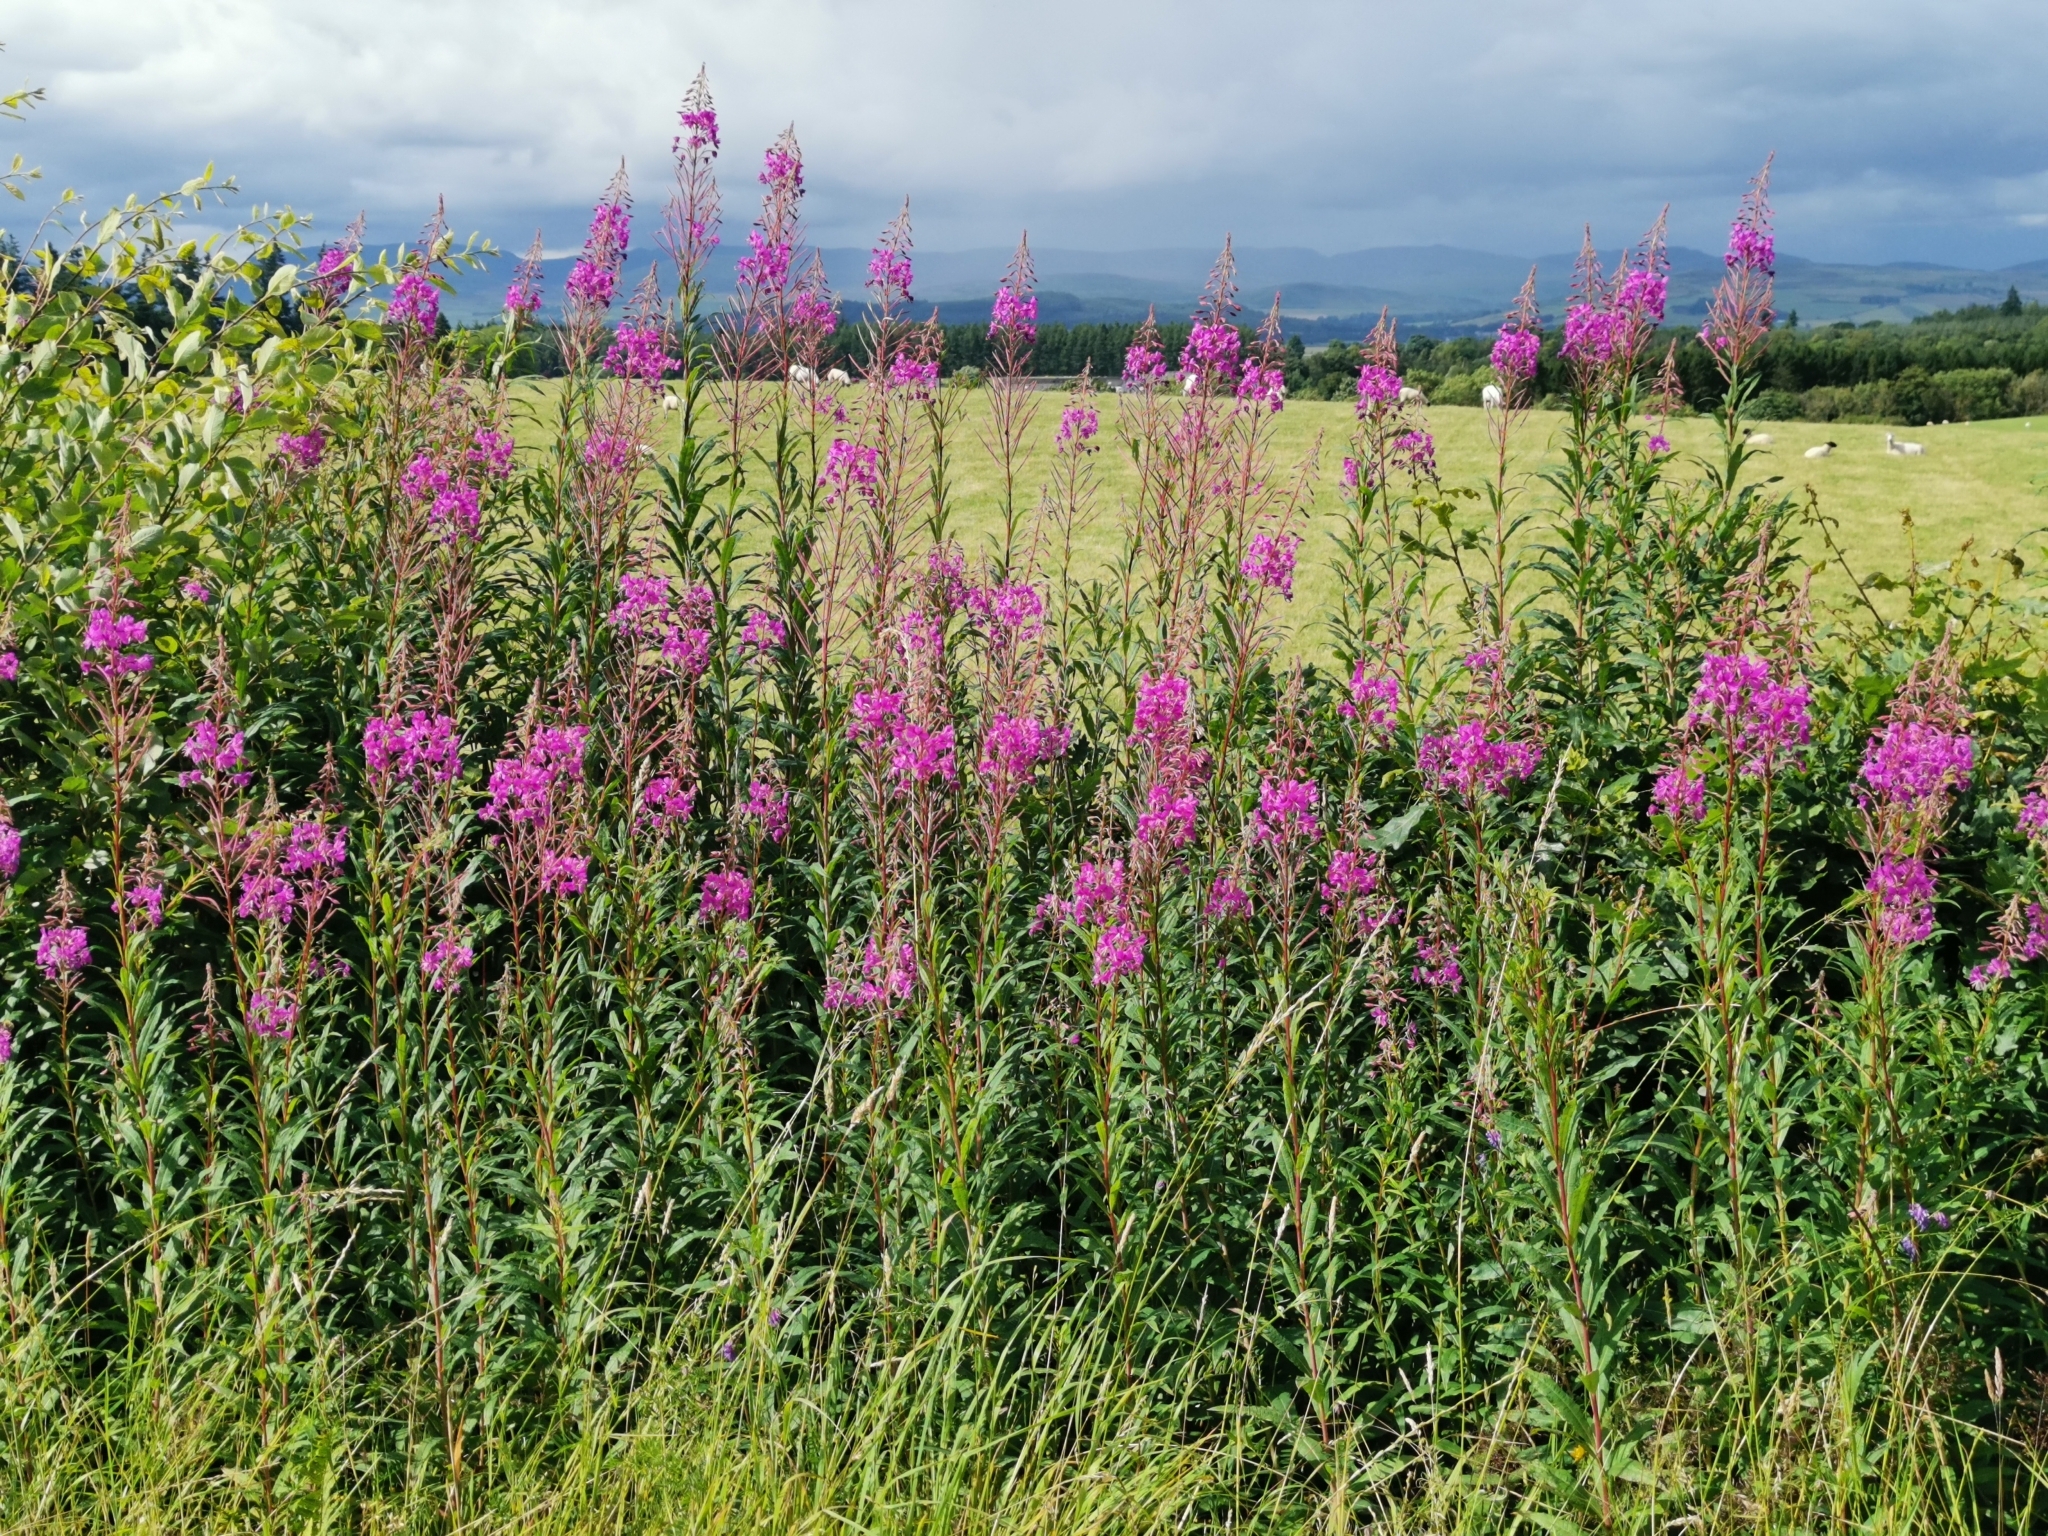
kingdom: Plantae
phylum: Tracheophyta
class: Magnoliopsida
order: Myrtales
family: Onagraceae
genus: Chamaenerion
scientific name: Chamaenerion angustifolium
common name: Fireweed
